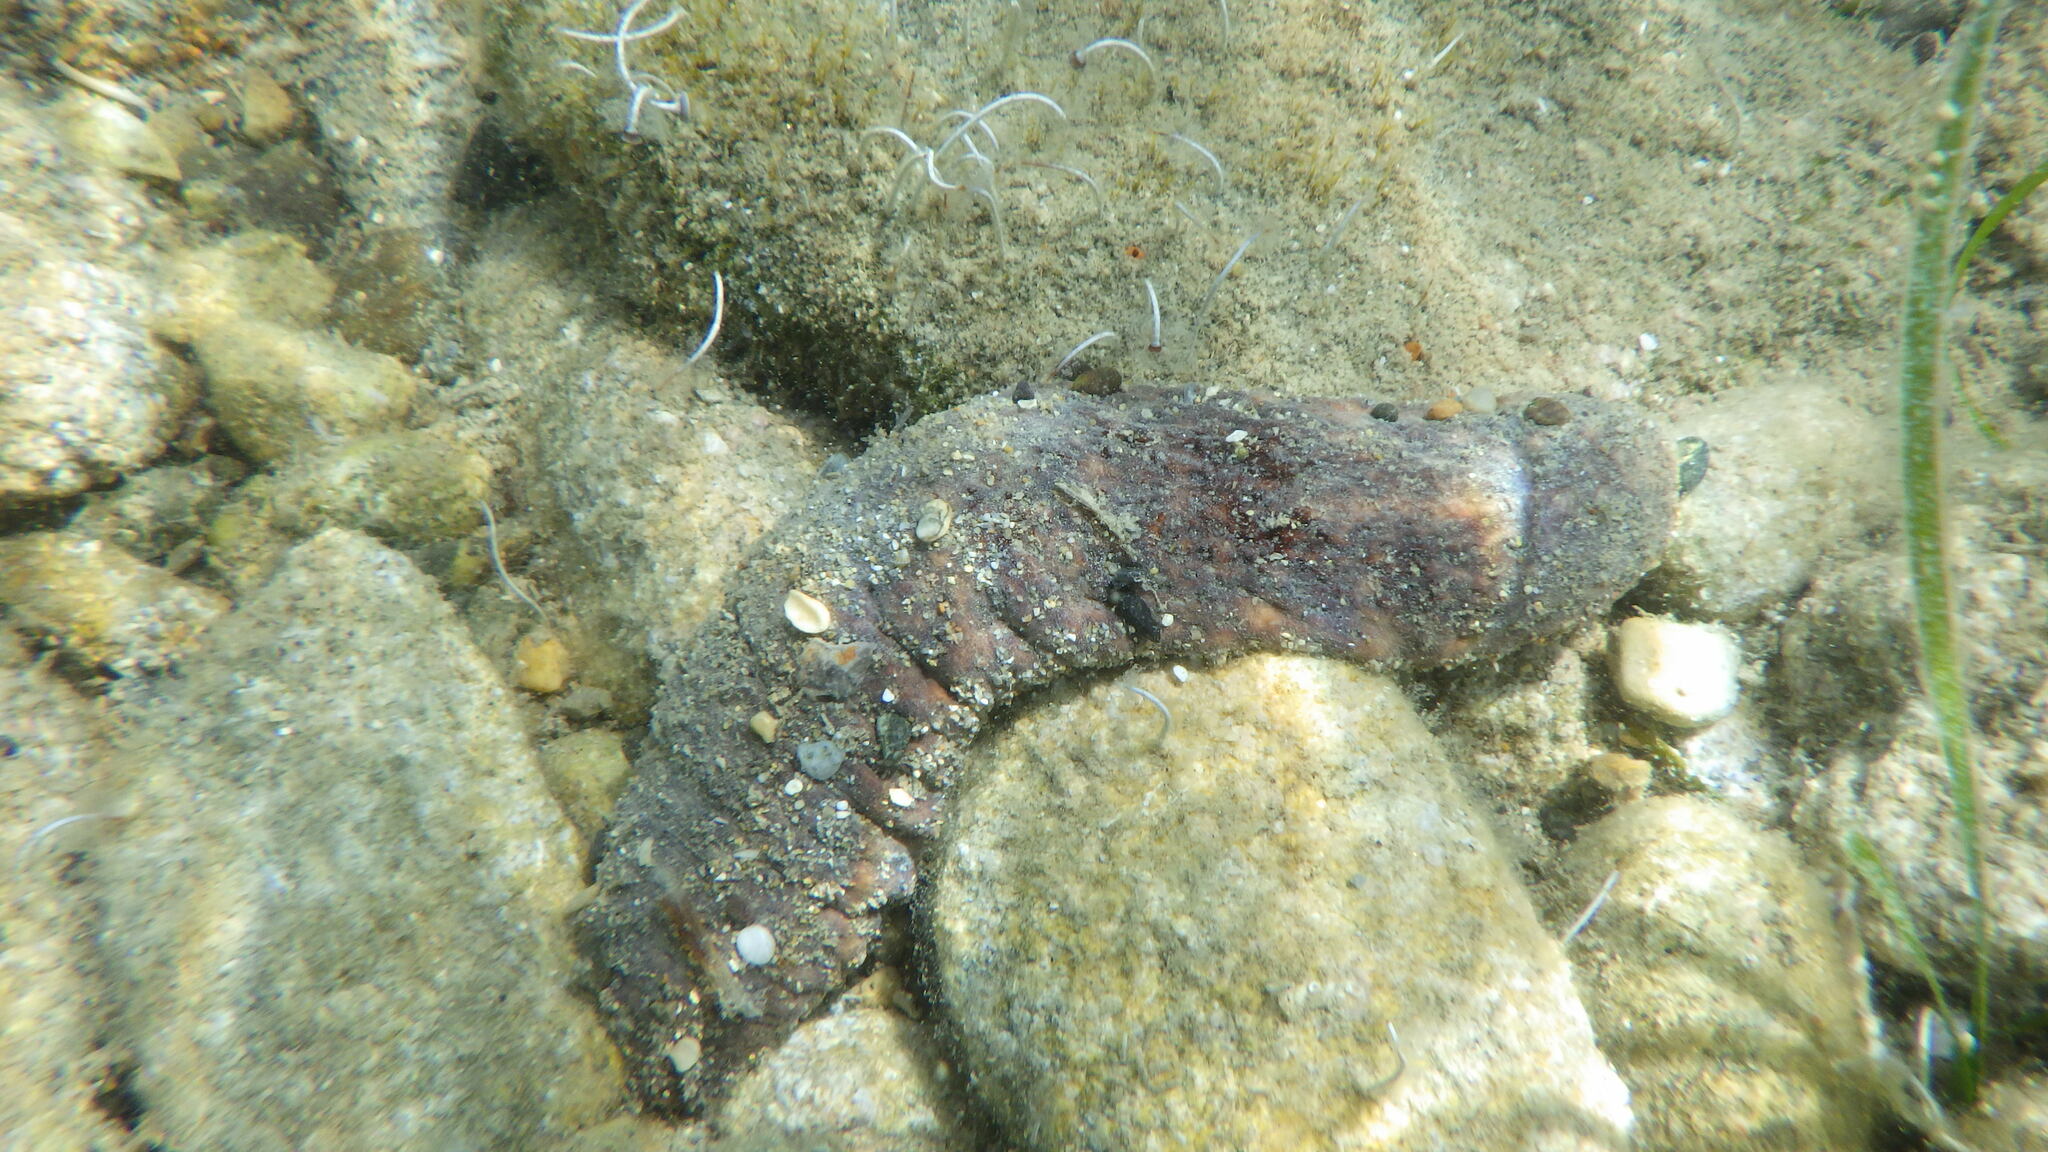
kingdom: Animalia
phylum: Echinodermata
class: Holothuroidea
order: Holothuriida
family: Holothuriidae
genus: Holothuria
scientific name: Holothuria
